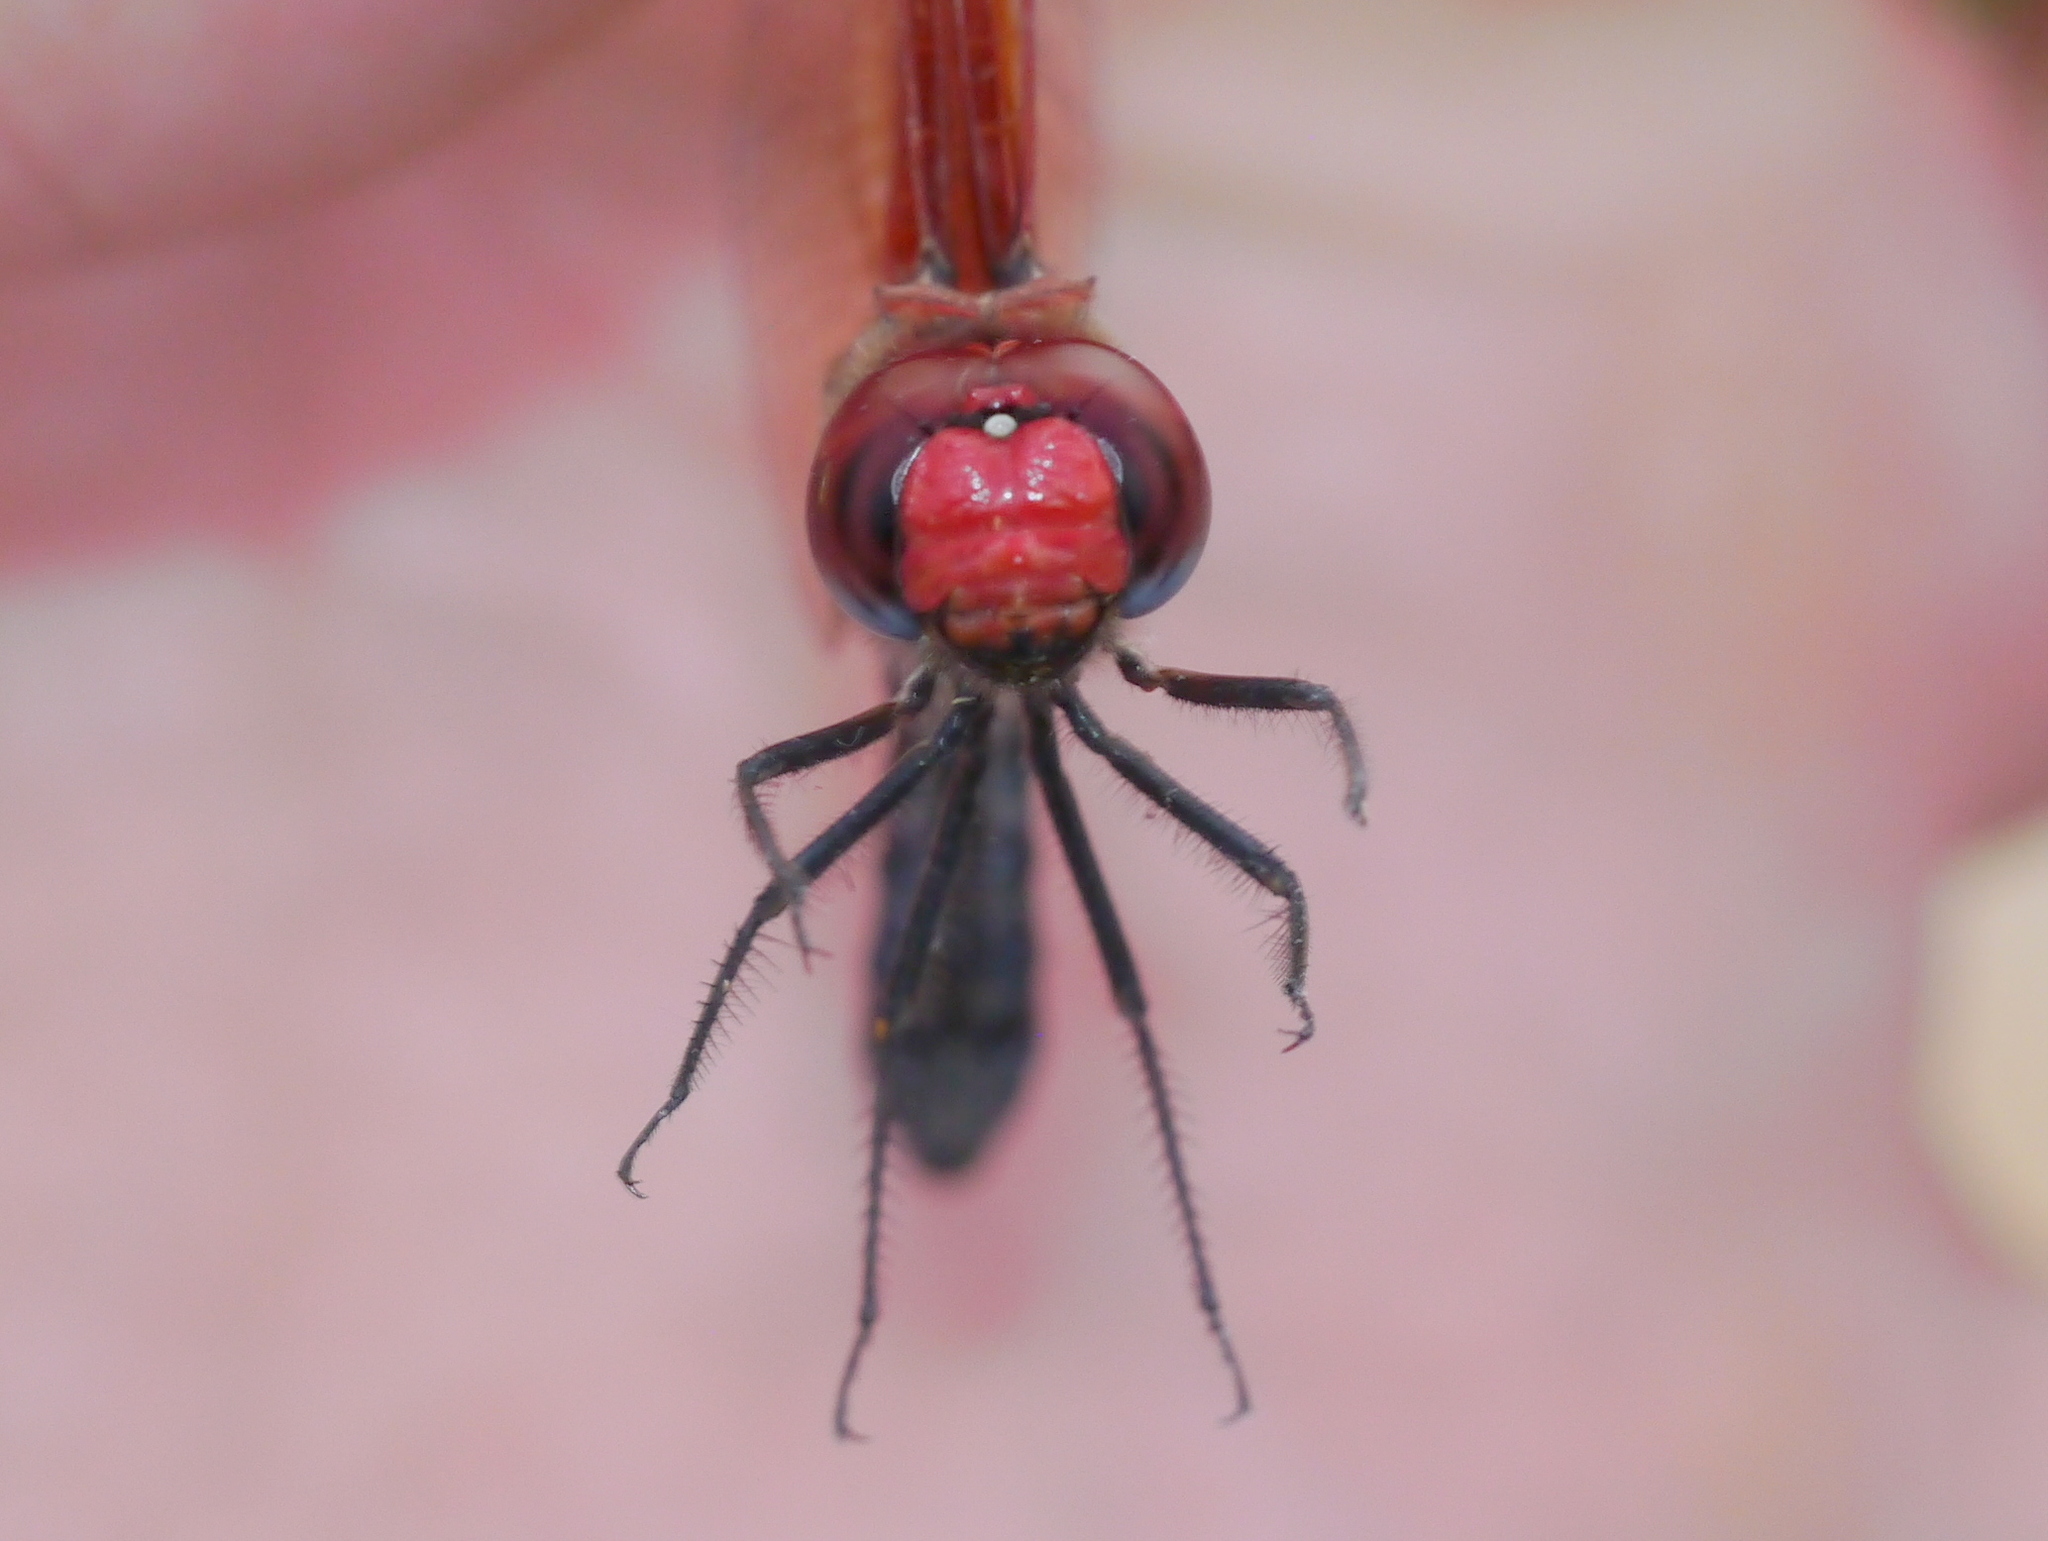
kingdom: Animalia
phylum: Arthropoda
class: Insecta
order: Odonata
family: Libellulidae
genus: Paltothemis
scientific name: Paltothemis lineatipes
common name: Red rock skimmer
